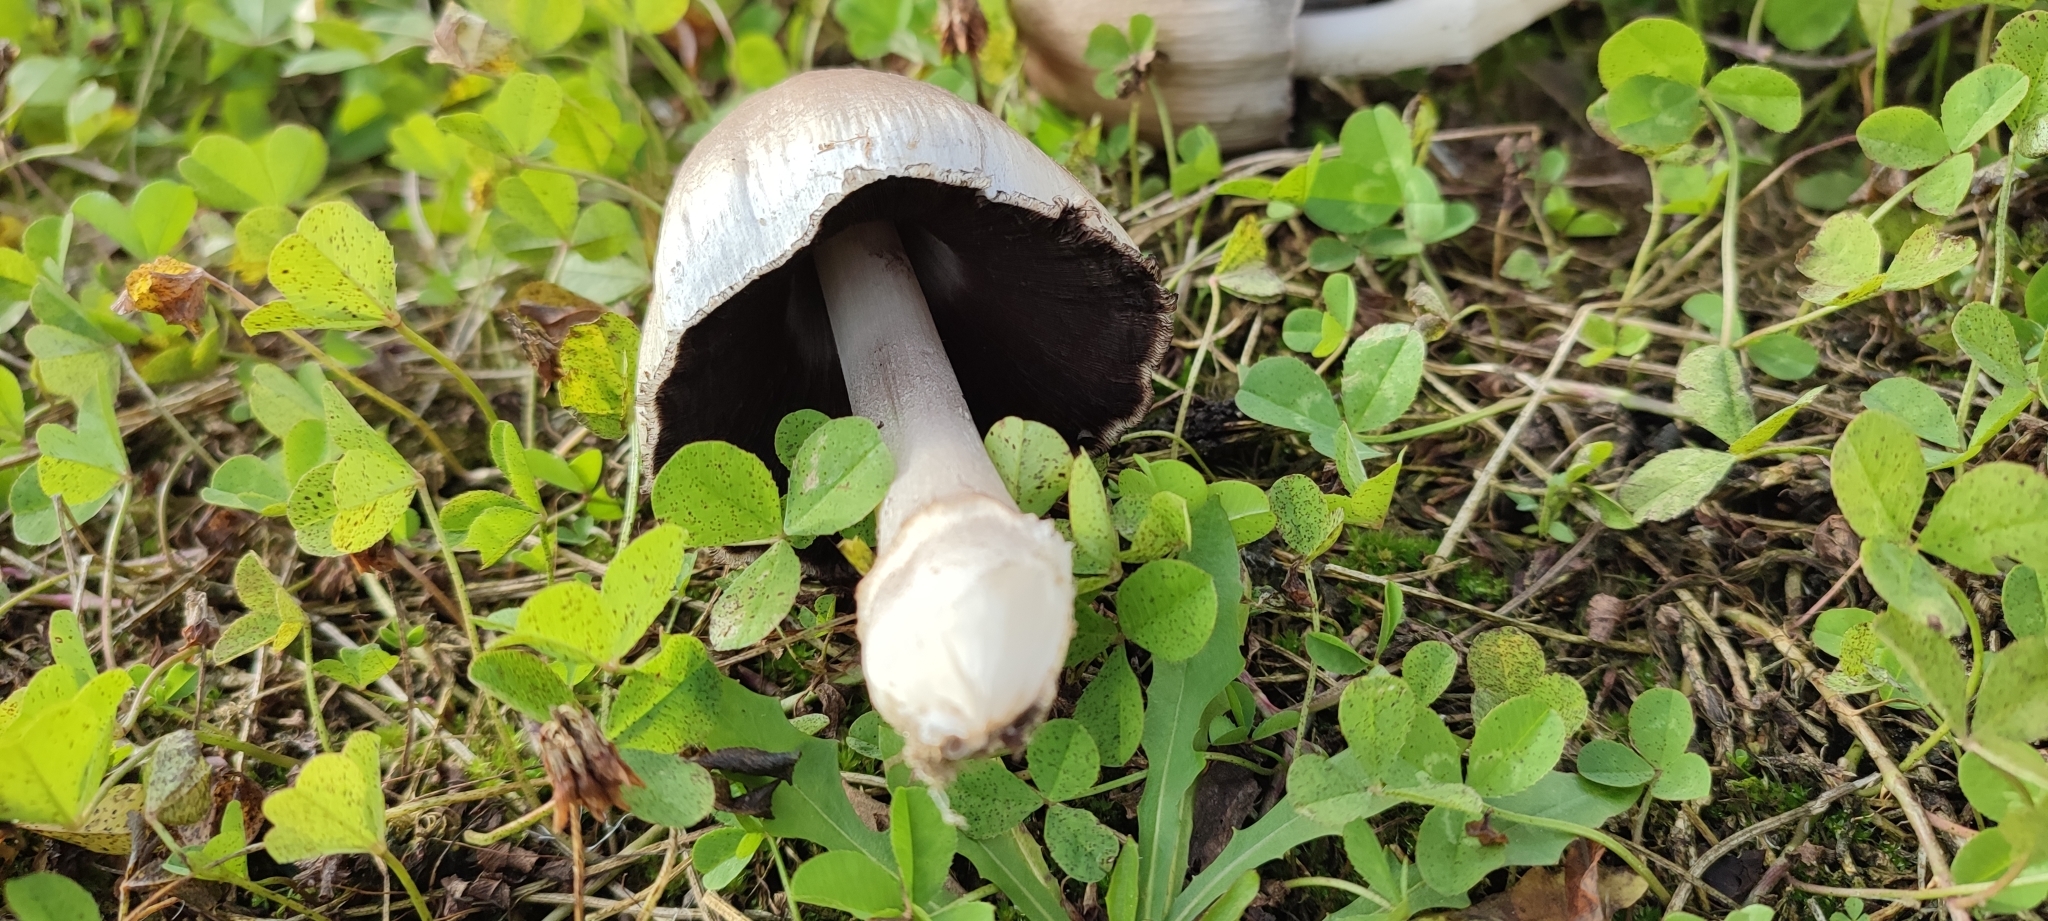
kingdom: Fungi
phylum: Basidiomycota
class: Agaricomycetes
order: Agaricales
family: Psathyrellaceae
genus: Coprinopsis
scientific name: Coprinopsis atramentaria
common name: Common ink-cap
